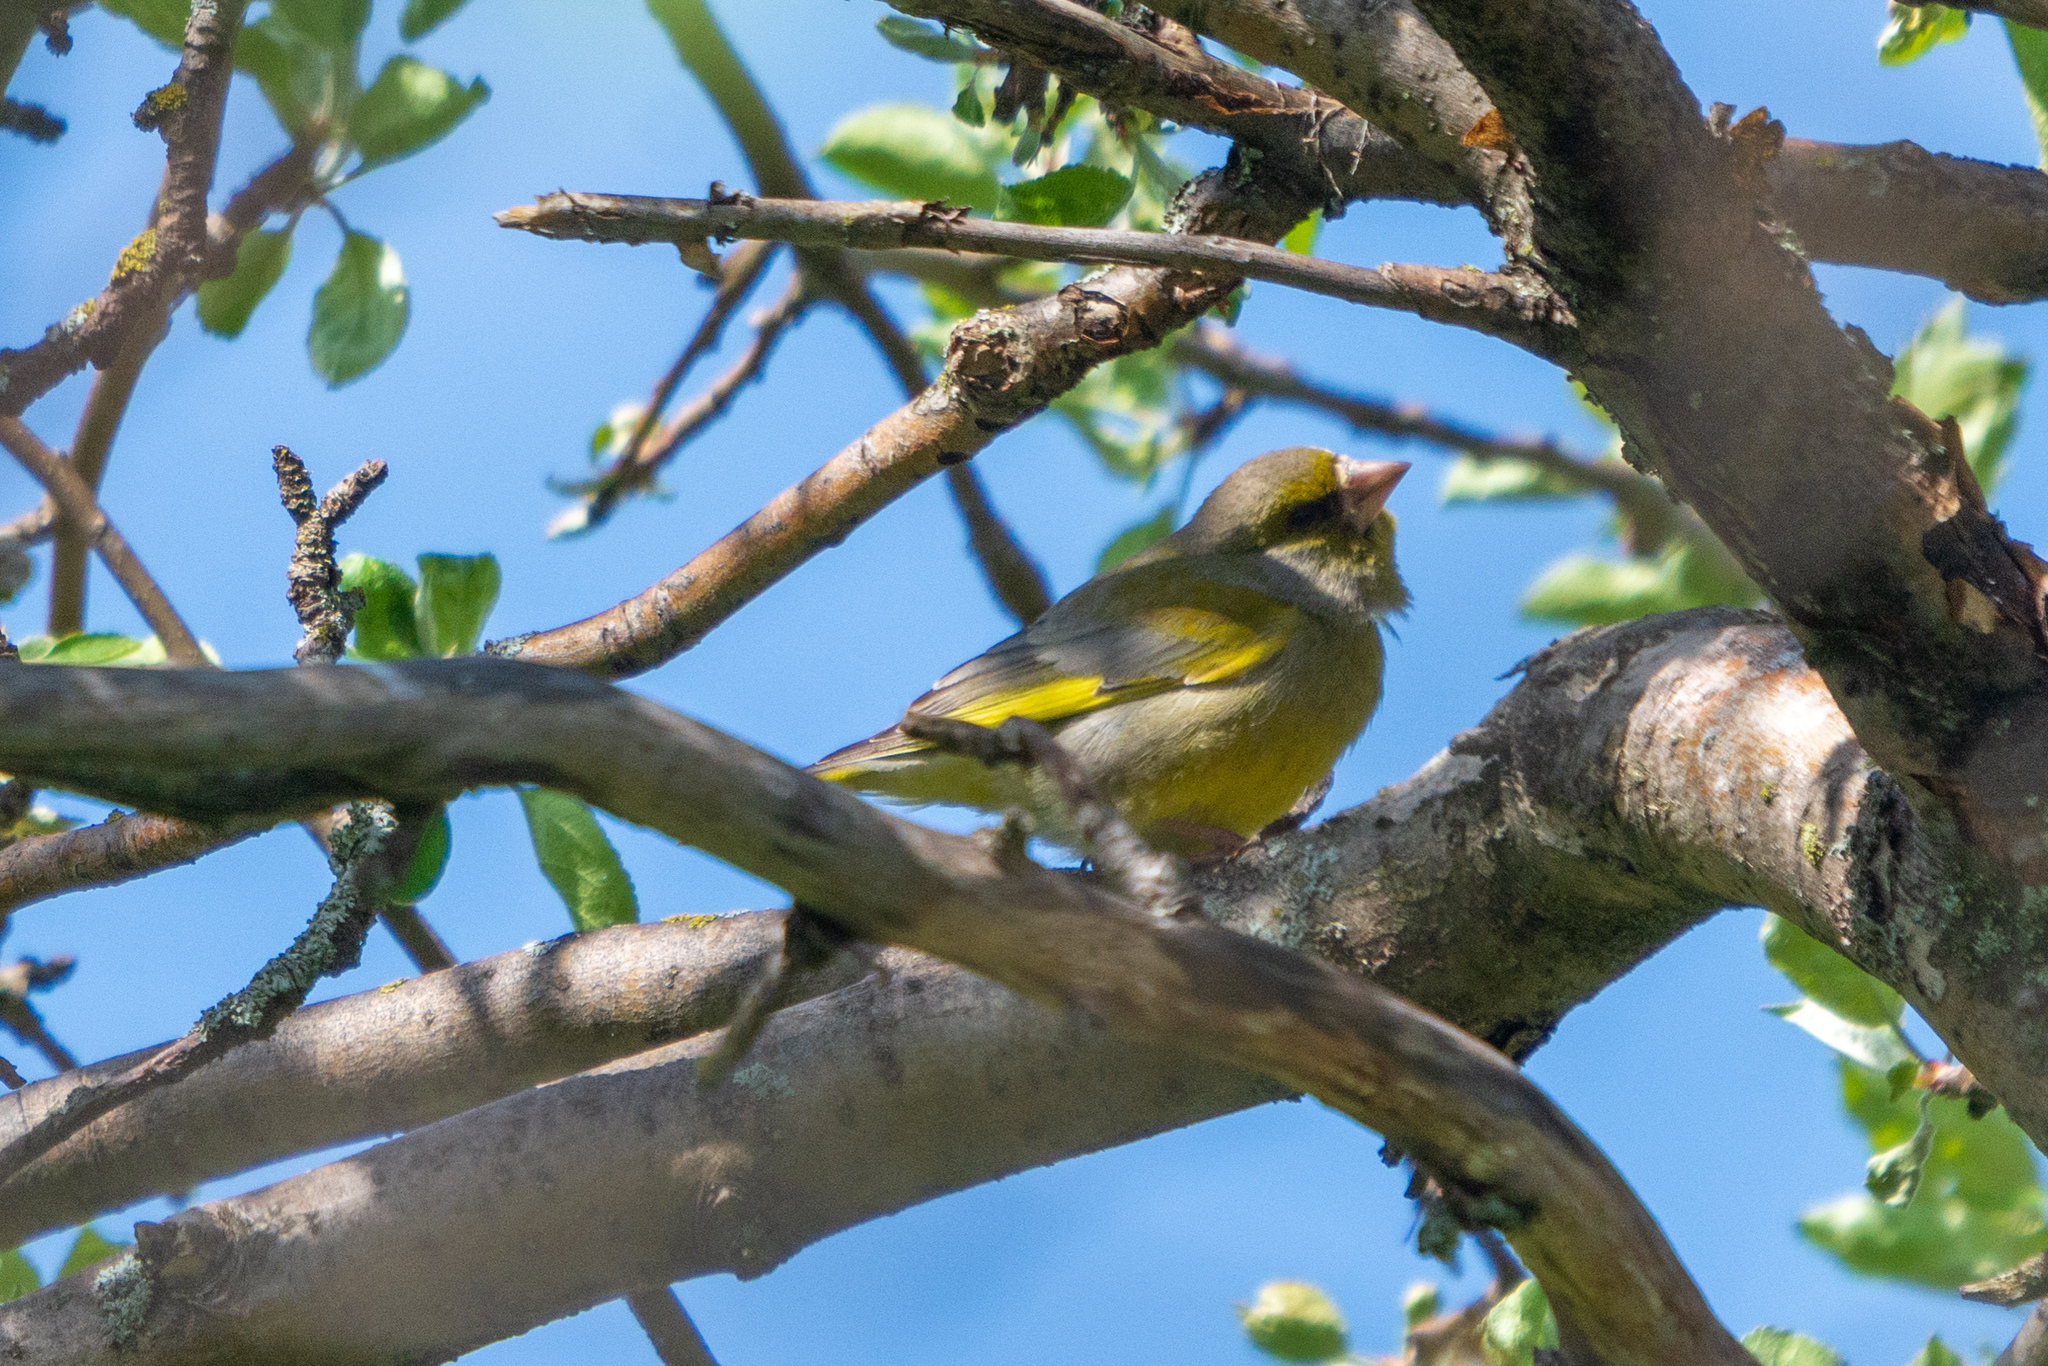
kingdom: Plantae
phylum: Tracheophyta
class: Liliopsida
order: Poales
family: Poaceae
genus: Chloris
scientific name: Chloris chloris
